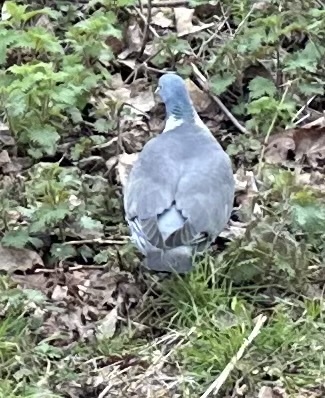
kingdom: Animalia
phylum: Chordata
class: Aves
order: Columbiformes
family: Columbidae
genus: Columba
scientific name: Columba palumbus
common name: Common wood pigeon
